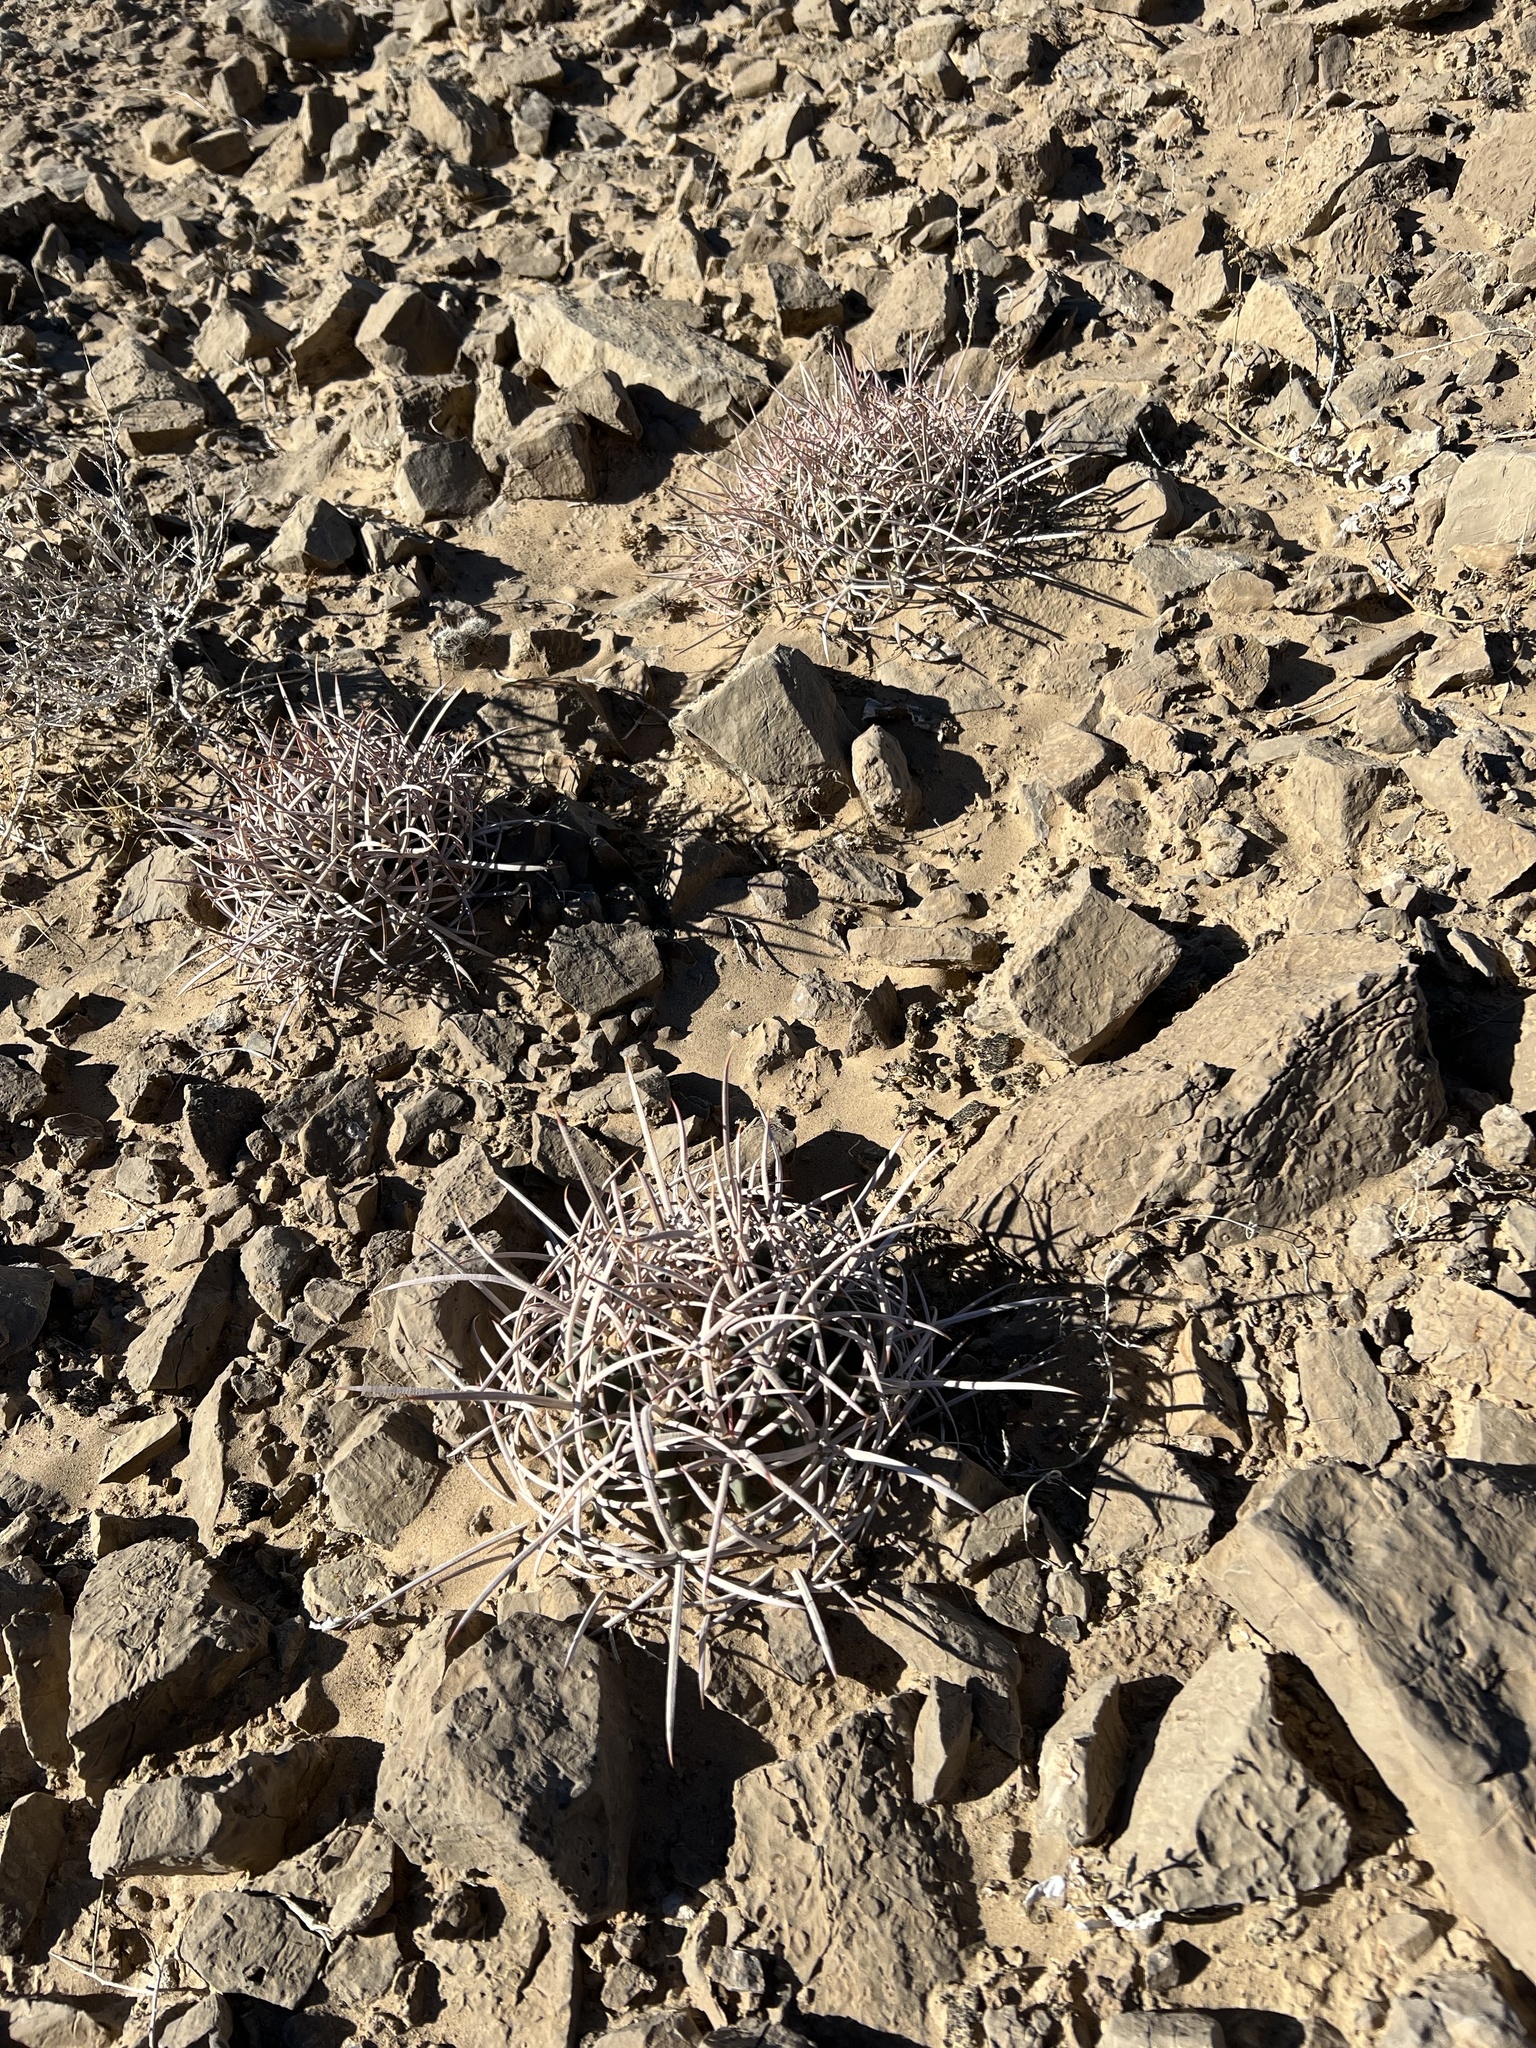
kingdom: Plantae
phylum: Tracheophyta
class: Magnoliopsida
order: Caryophyllales
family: Cactaceae
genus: Echinocactus
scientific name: Echinocactus polycephalus
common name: Cottontop cactus
